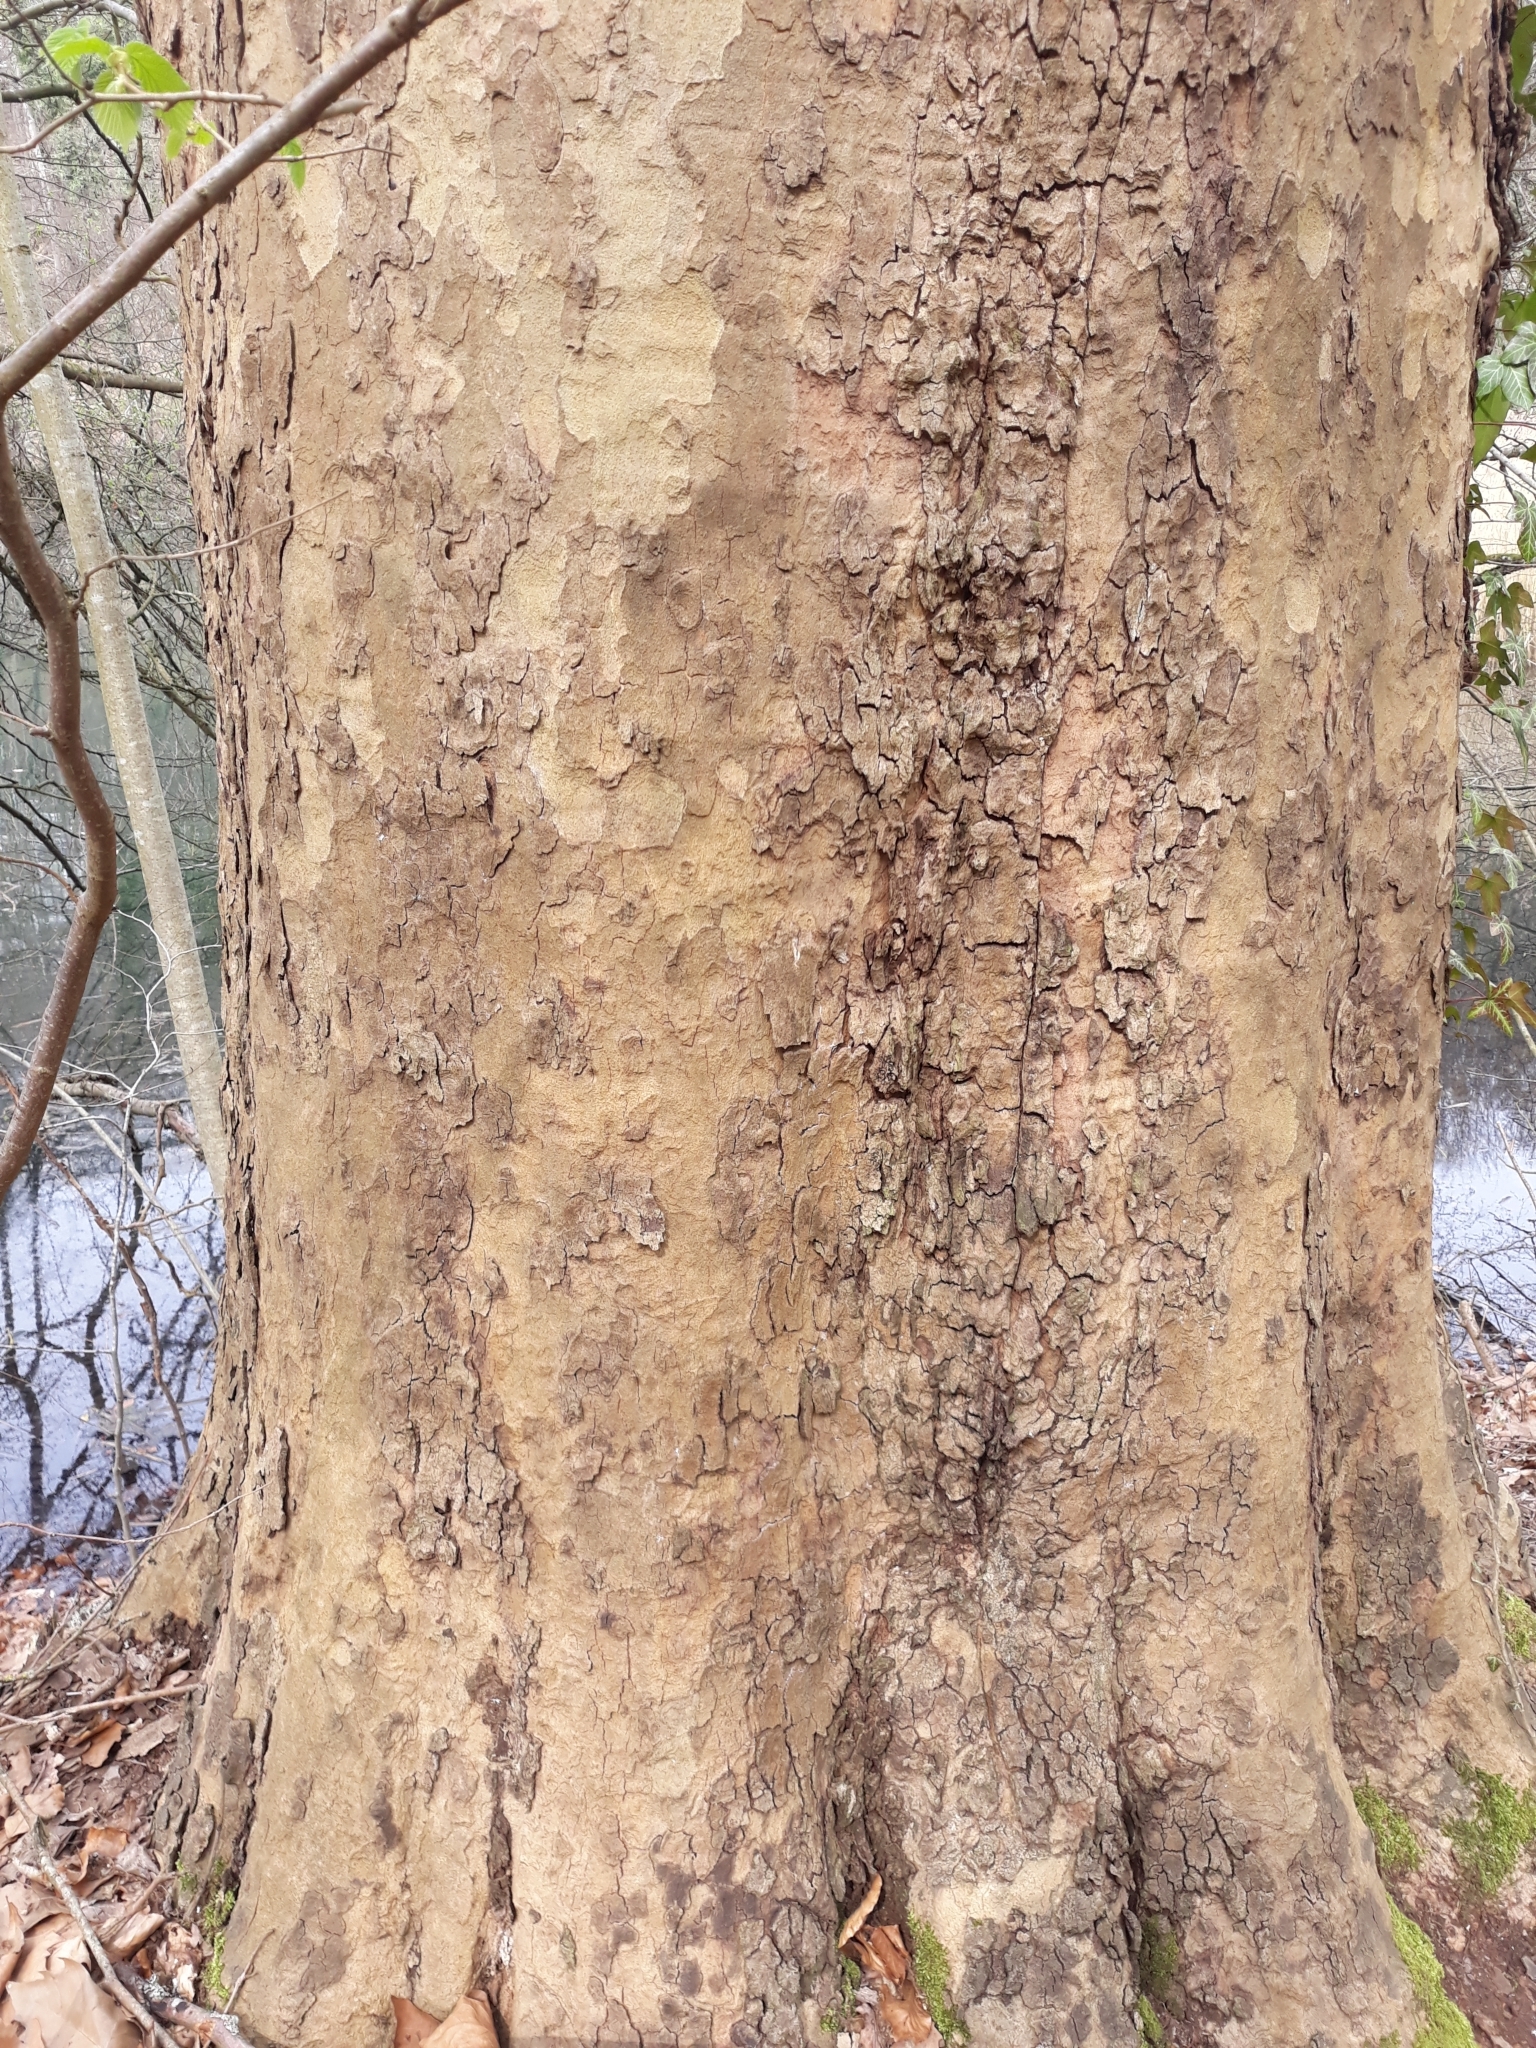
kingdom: Plantae
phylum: Tracheophyta
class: Magnoliopsida
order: Proteales
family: Platanaceae
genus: Platanus
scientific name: Platanus hispanica
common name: London plane
